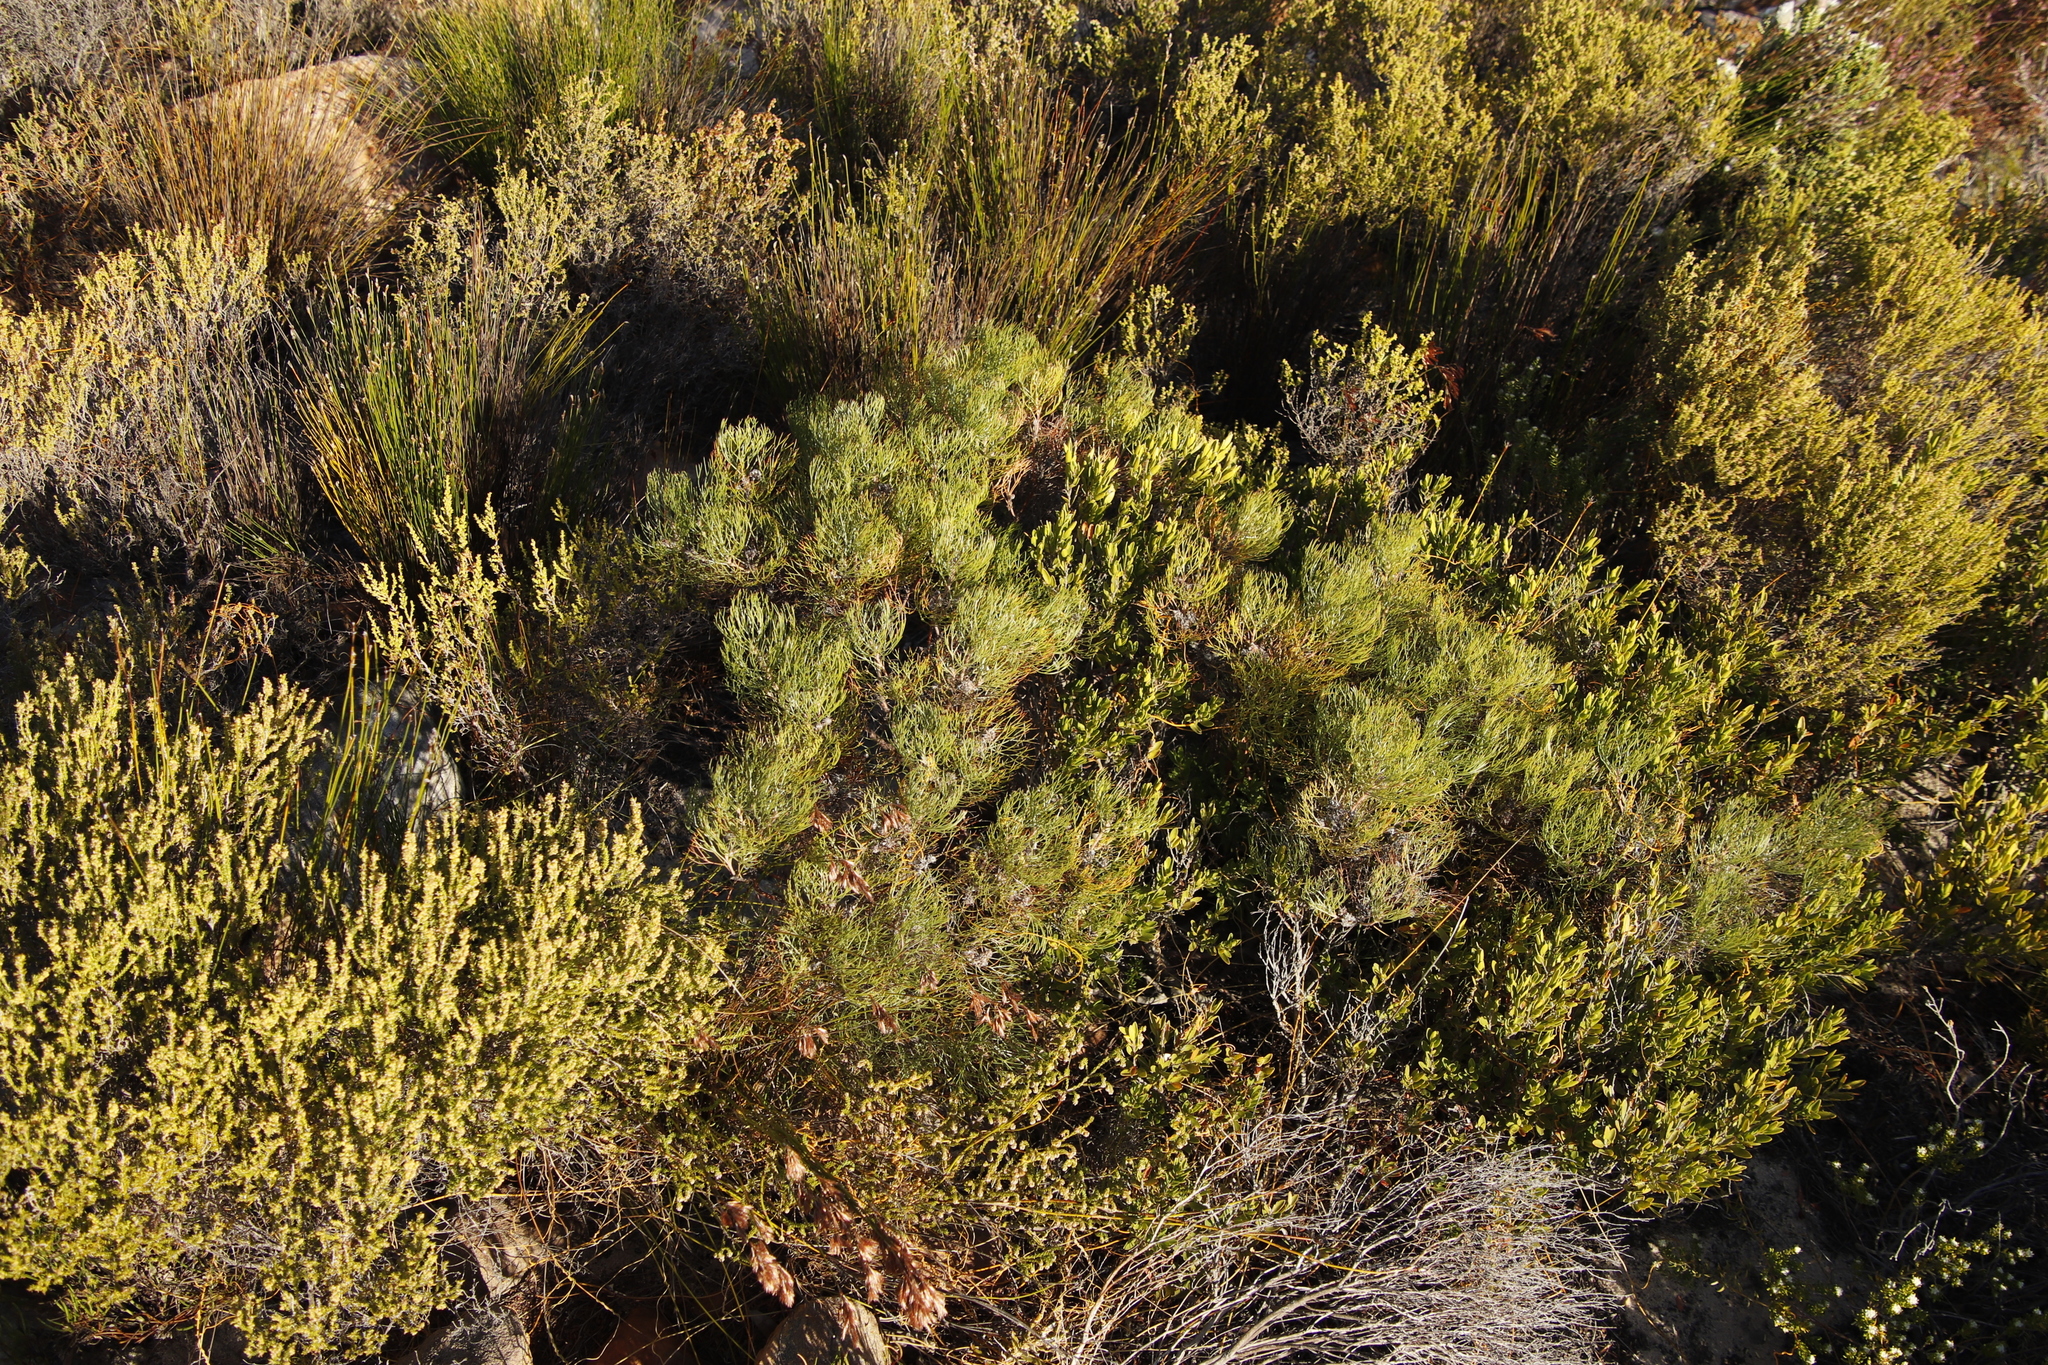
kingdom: Plantae
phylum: Tracheophyta
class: Magnoliopsida
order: Proteales
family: Proteaceae
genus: Serruria
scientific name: Serruria fasciflora
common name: Common pin spiderhead
